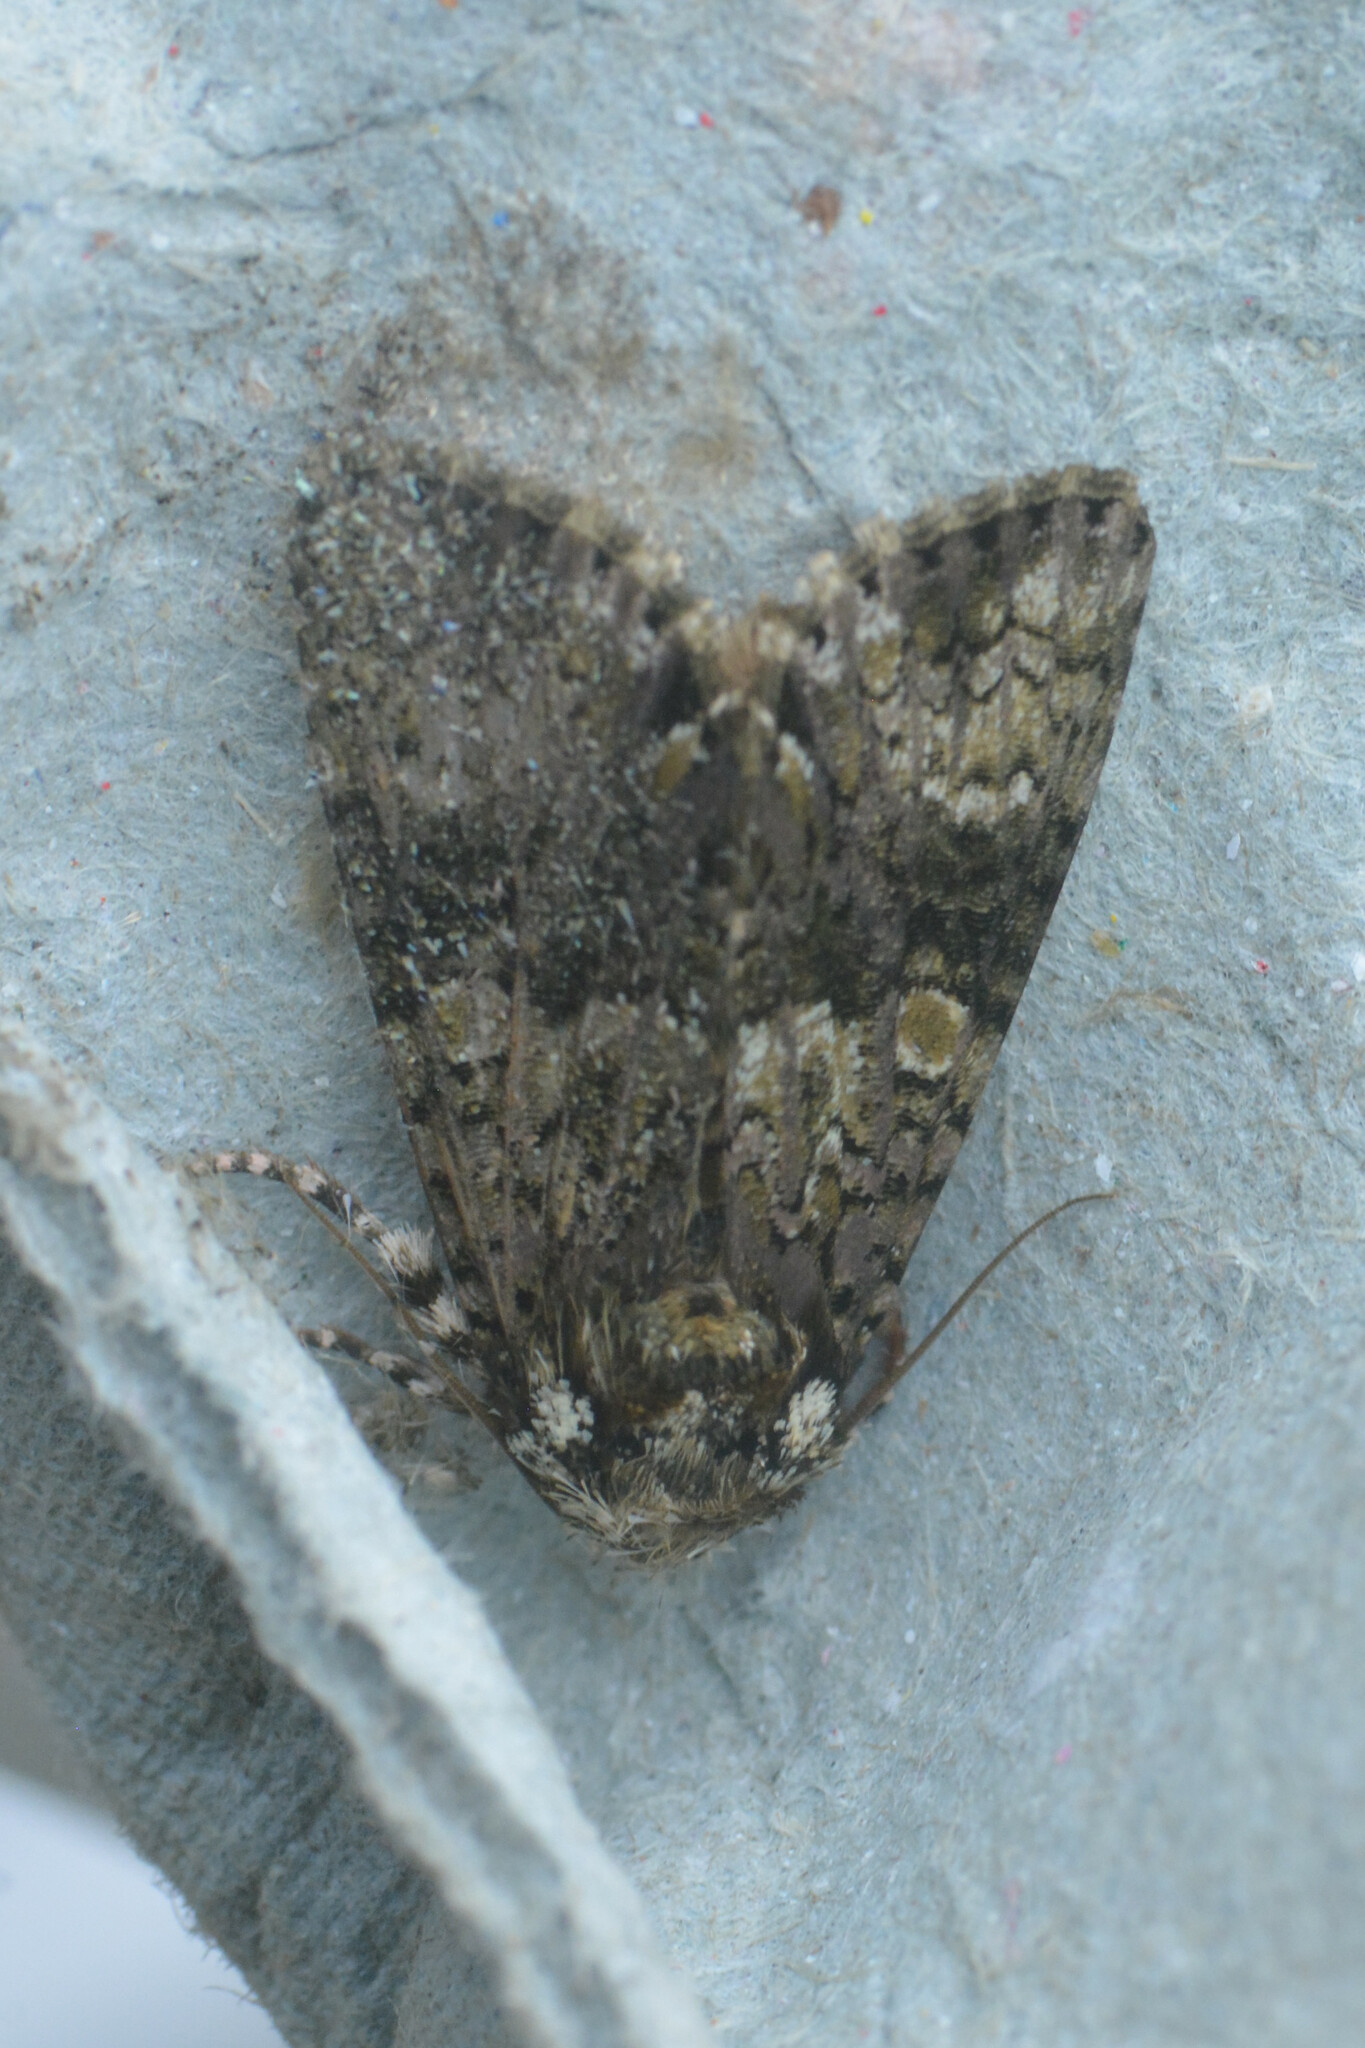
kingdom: Animalia
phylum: Arthropoda
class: Insecta
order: Lepidoptera
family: Noctuidae
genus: Craniophora
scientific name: Craniophora ligustri
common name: Coronet
